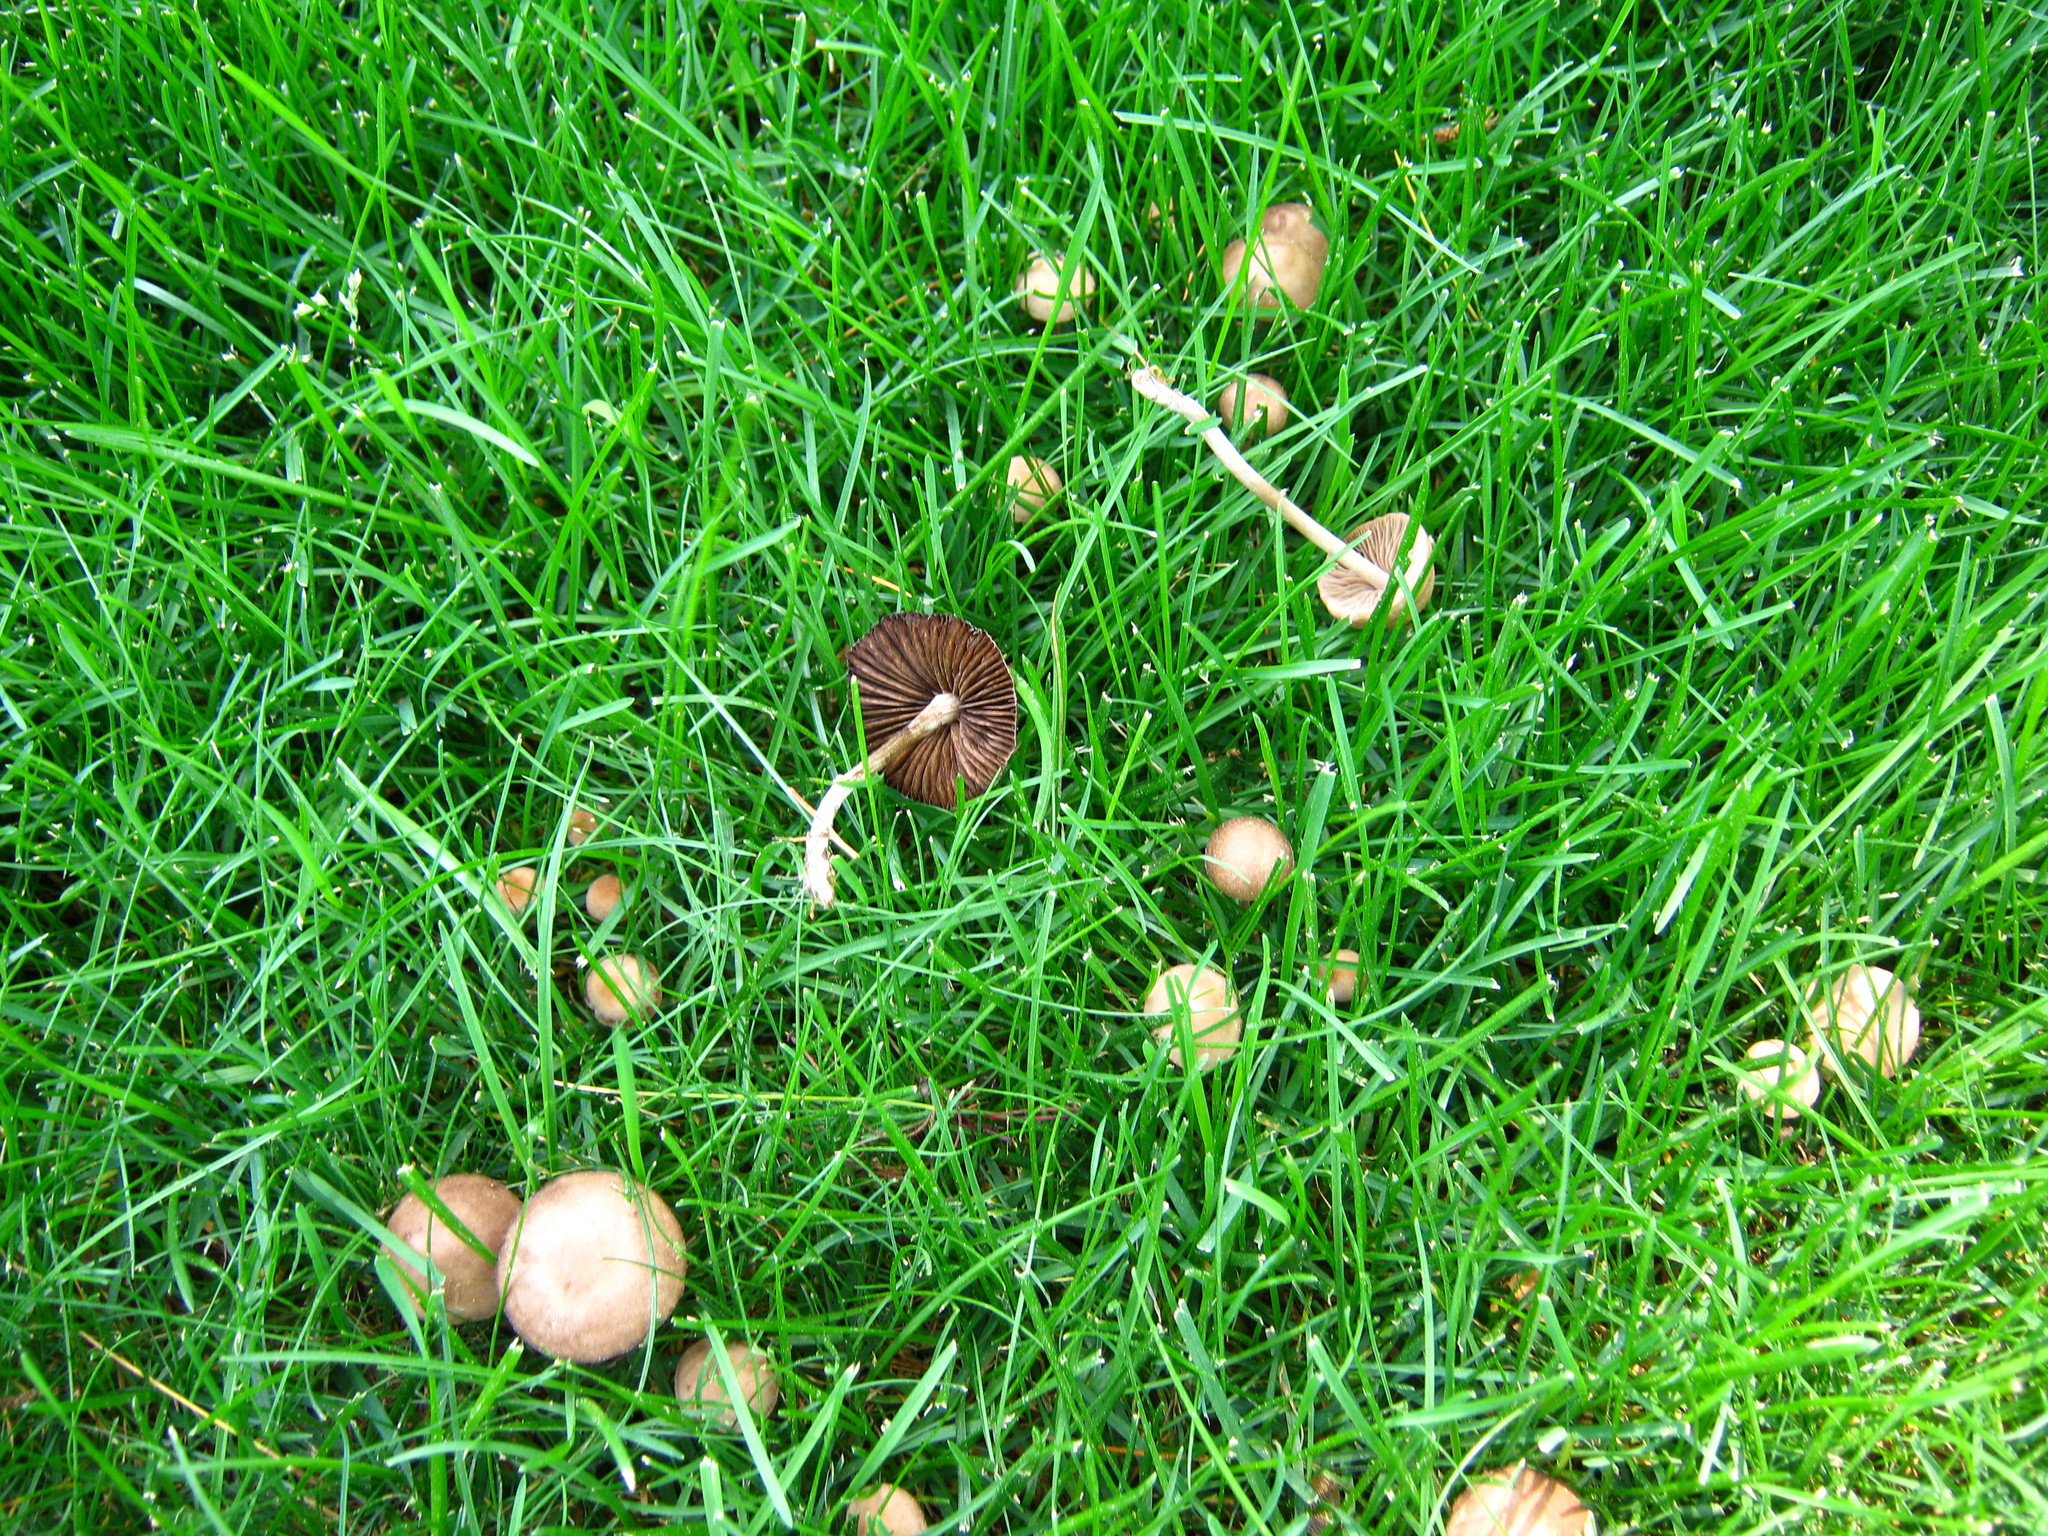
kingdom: Fungi
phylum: Basidiomycota
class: Agaricomycetes
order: Agaricales
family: Bolbitiaceae
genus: Panaeolina
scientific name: Panaeolina foenisecii
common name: Brown hay cap
